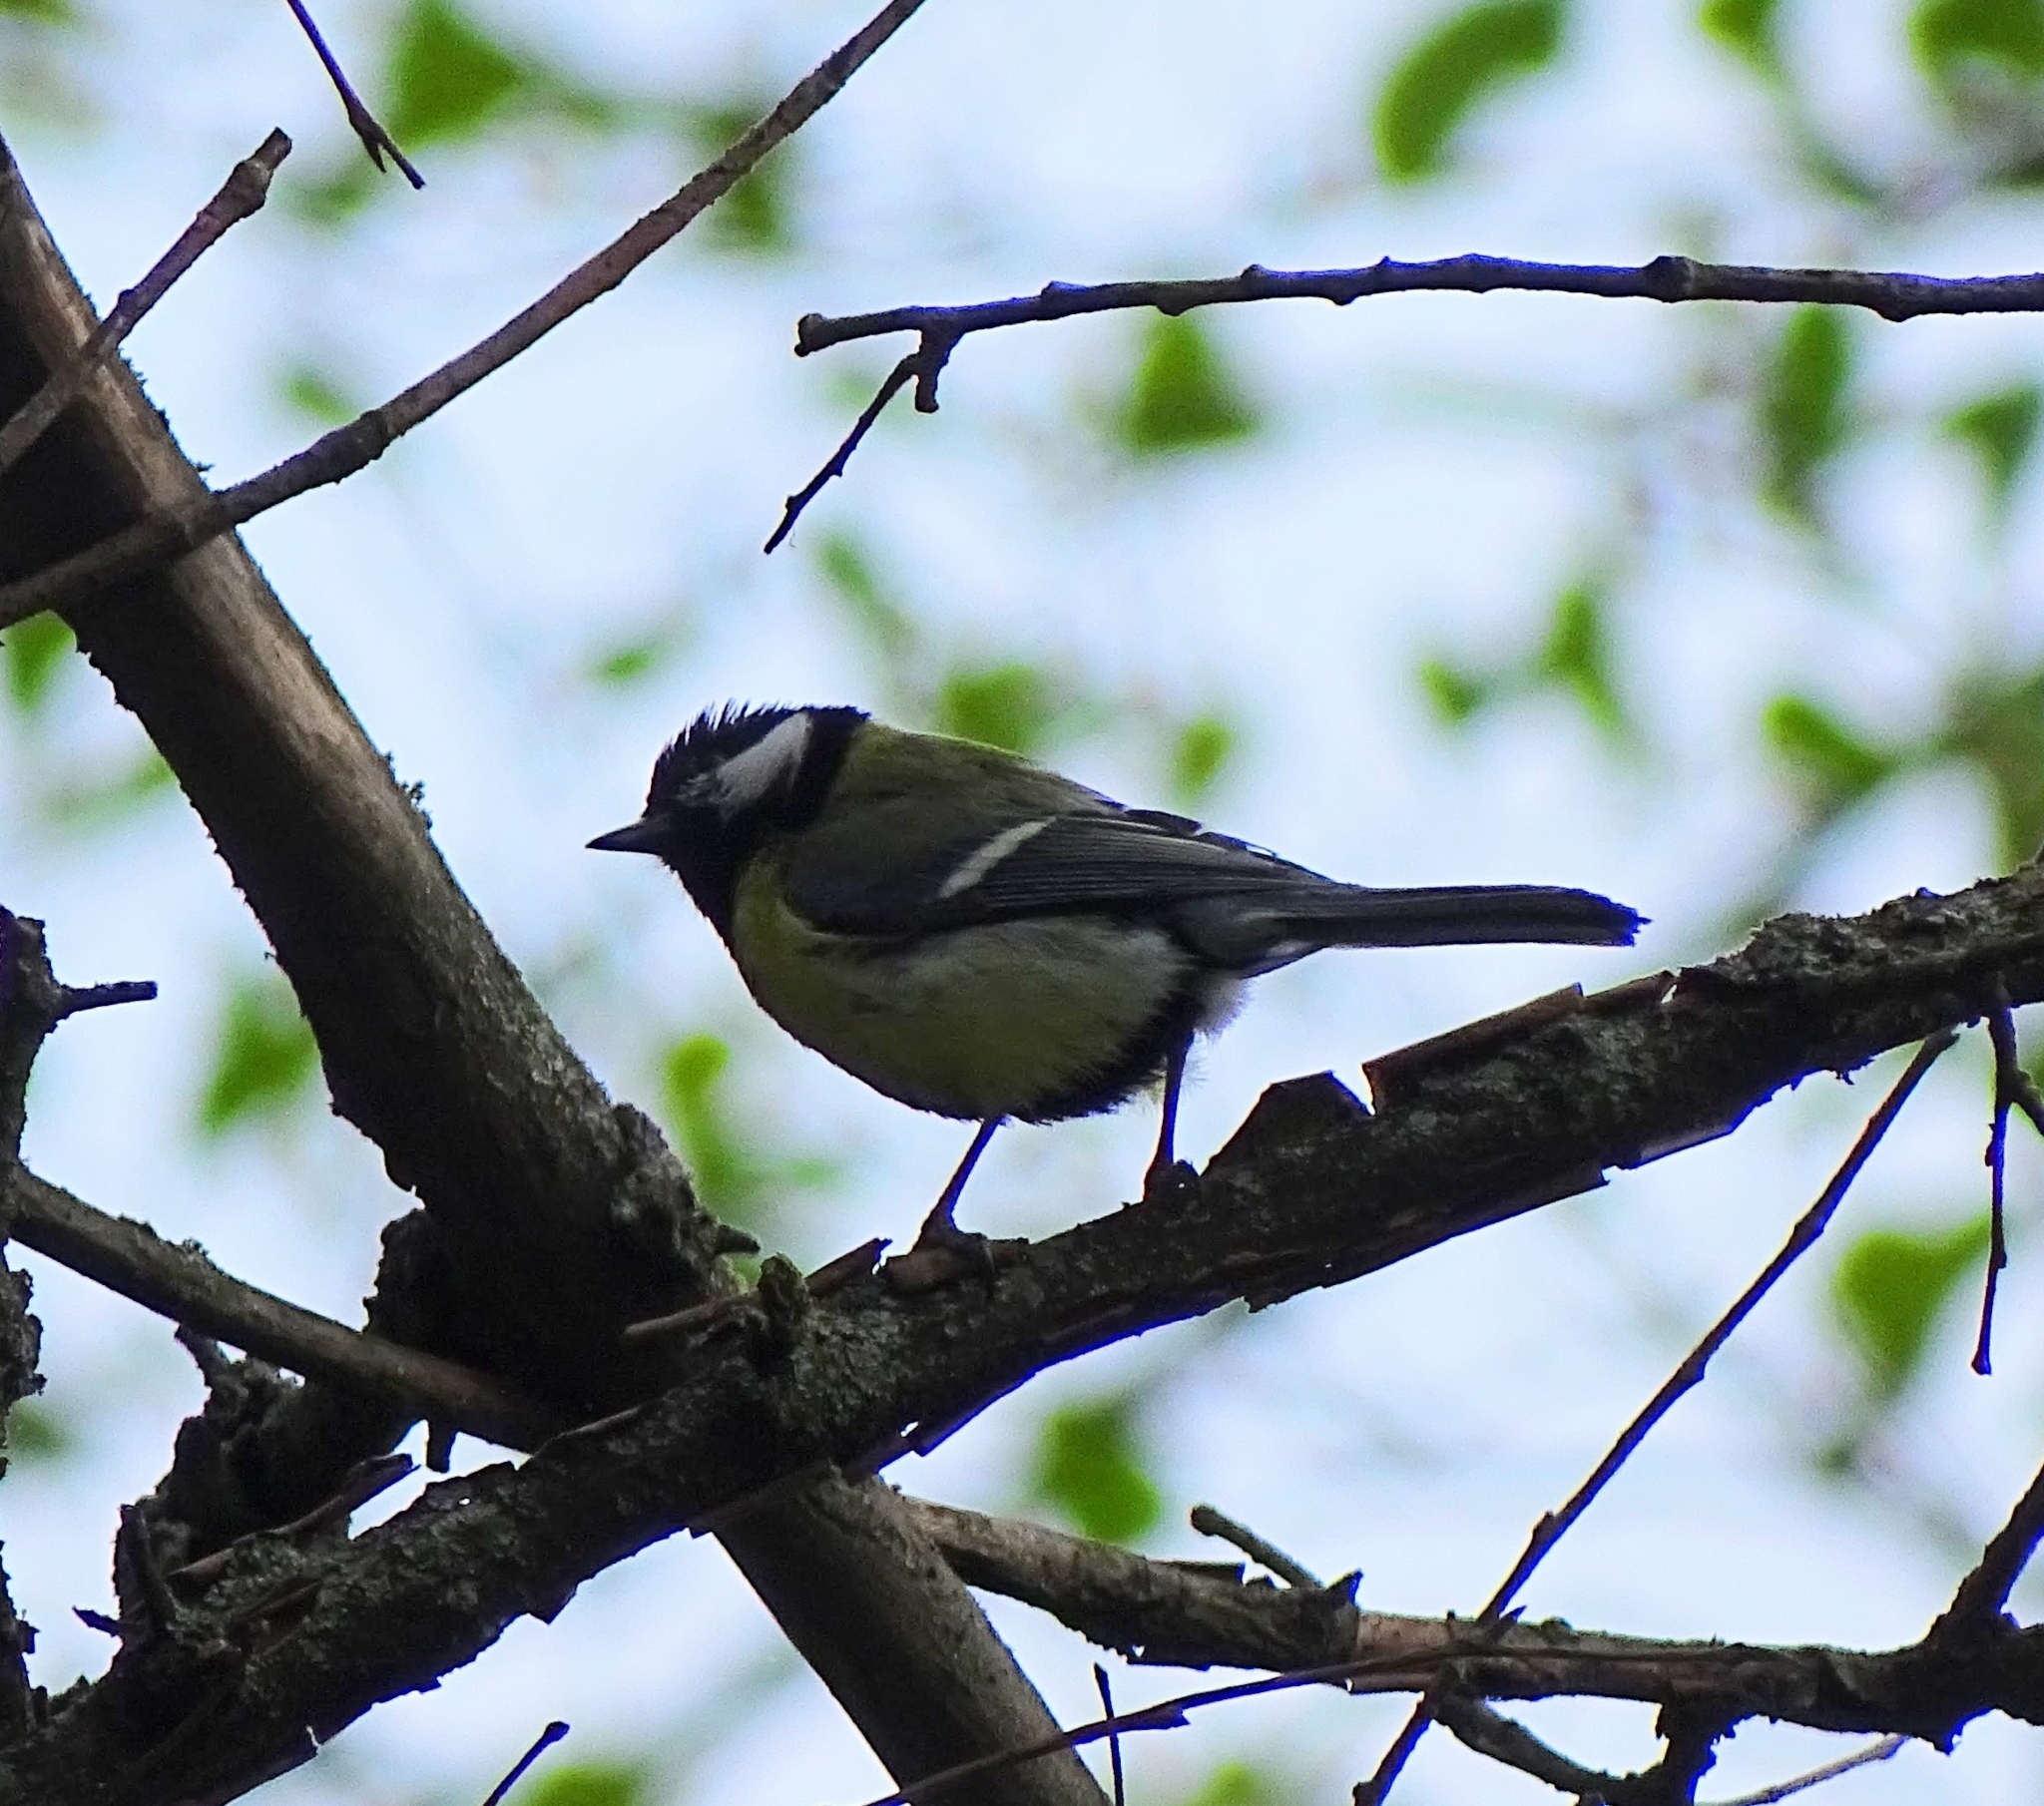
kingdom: Animalia
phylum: Chordata
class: Aves
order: Passeriformes
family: Paridae
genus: Parus
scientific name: Parus major
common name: Great tit
